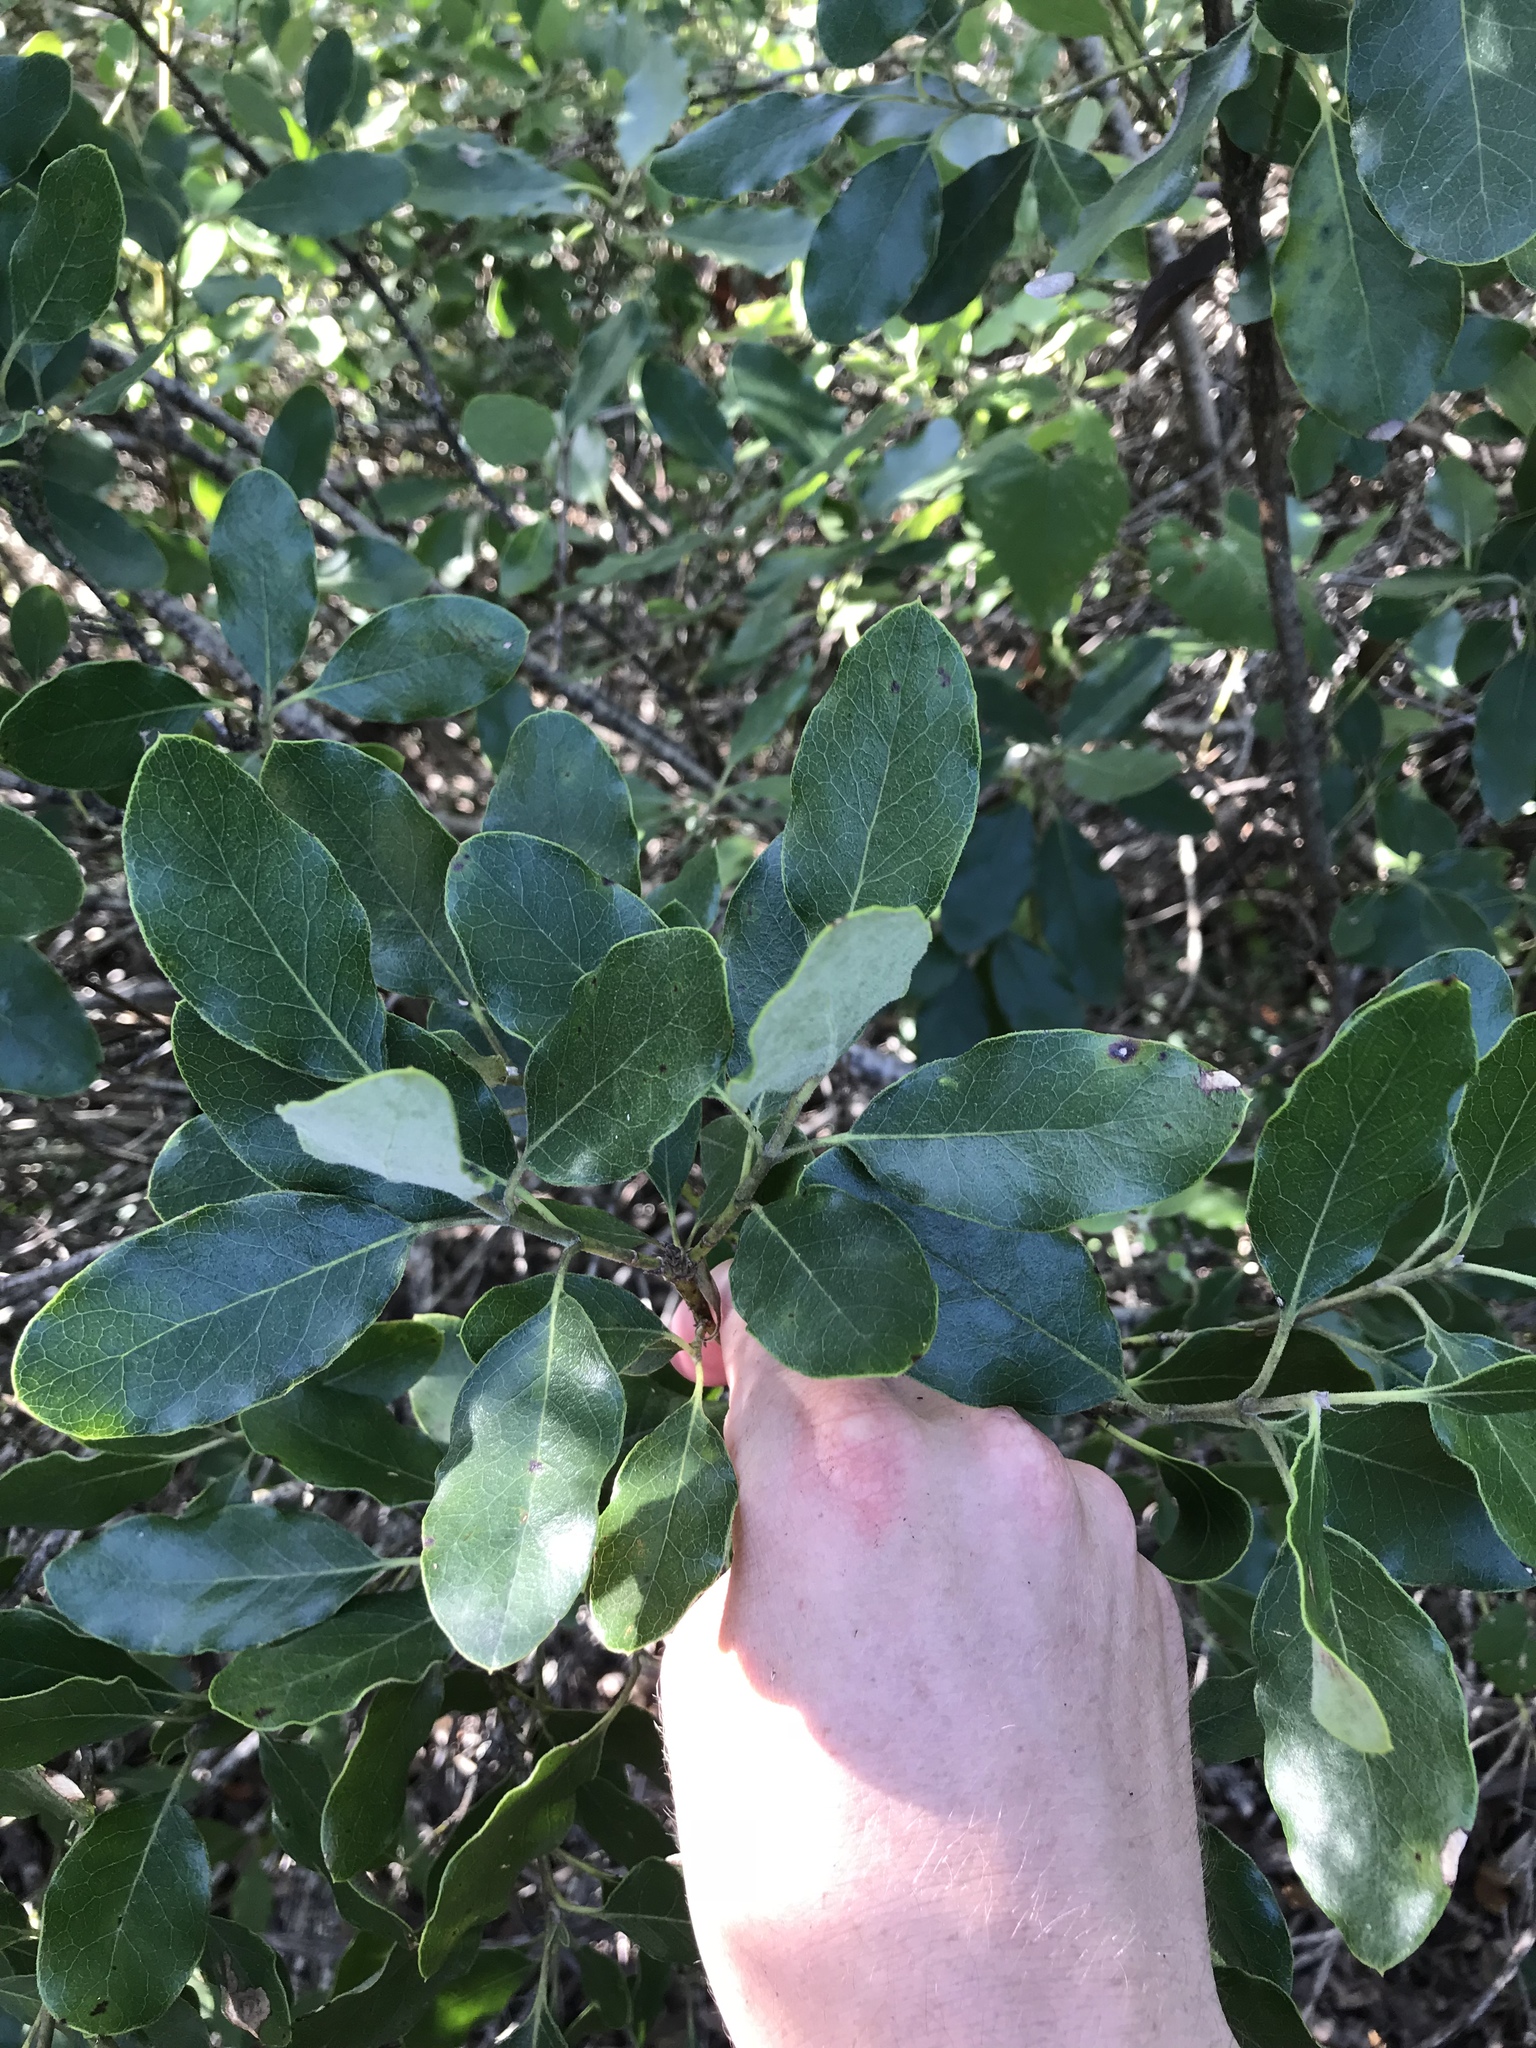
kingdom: Plantae
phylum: Tracheophyta
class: Magnoliopsida
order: Garryales
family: Garryaceae
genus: Garrya
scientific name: Garrya lindheimeri
